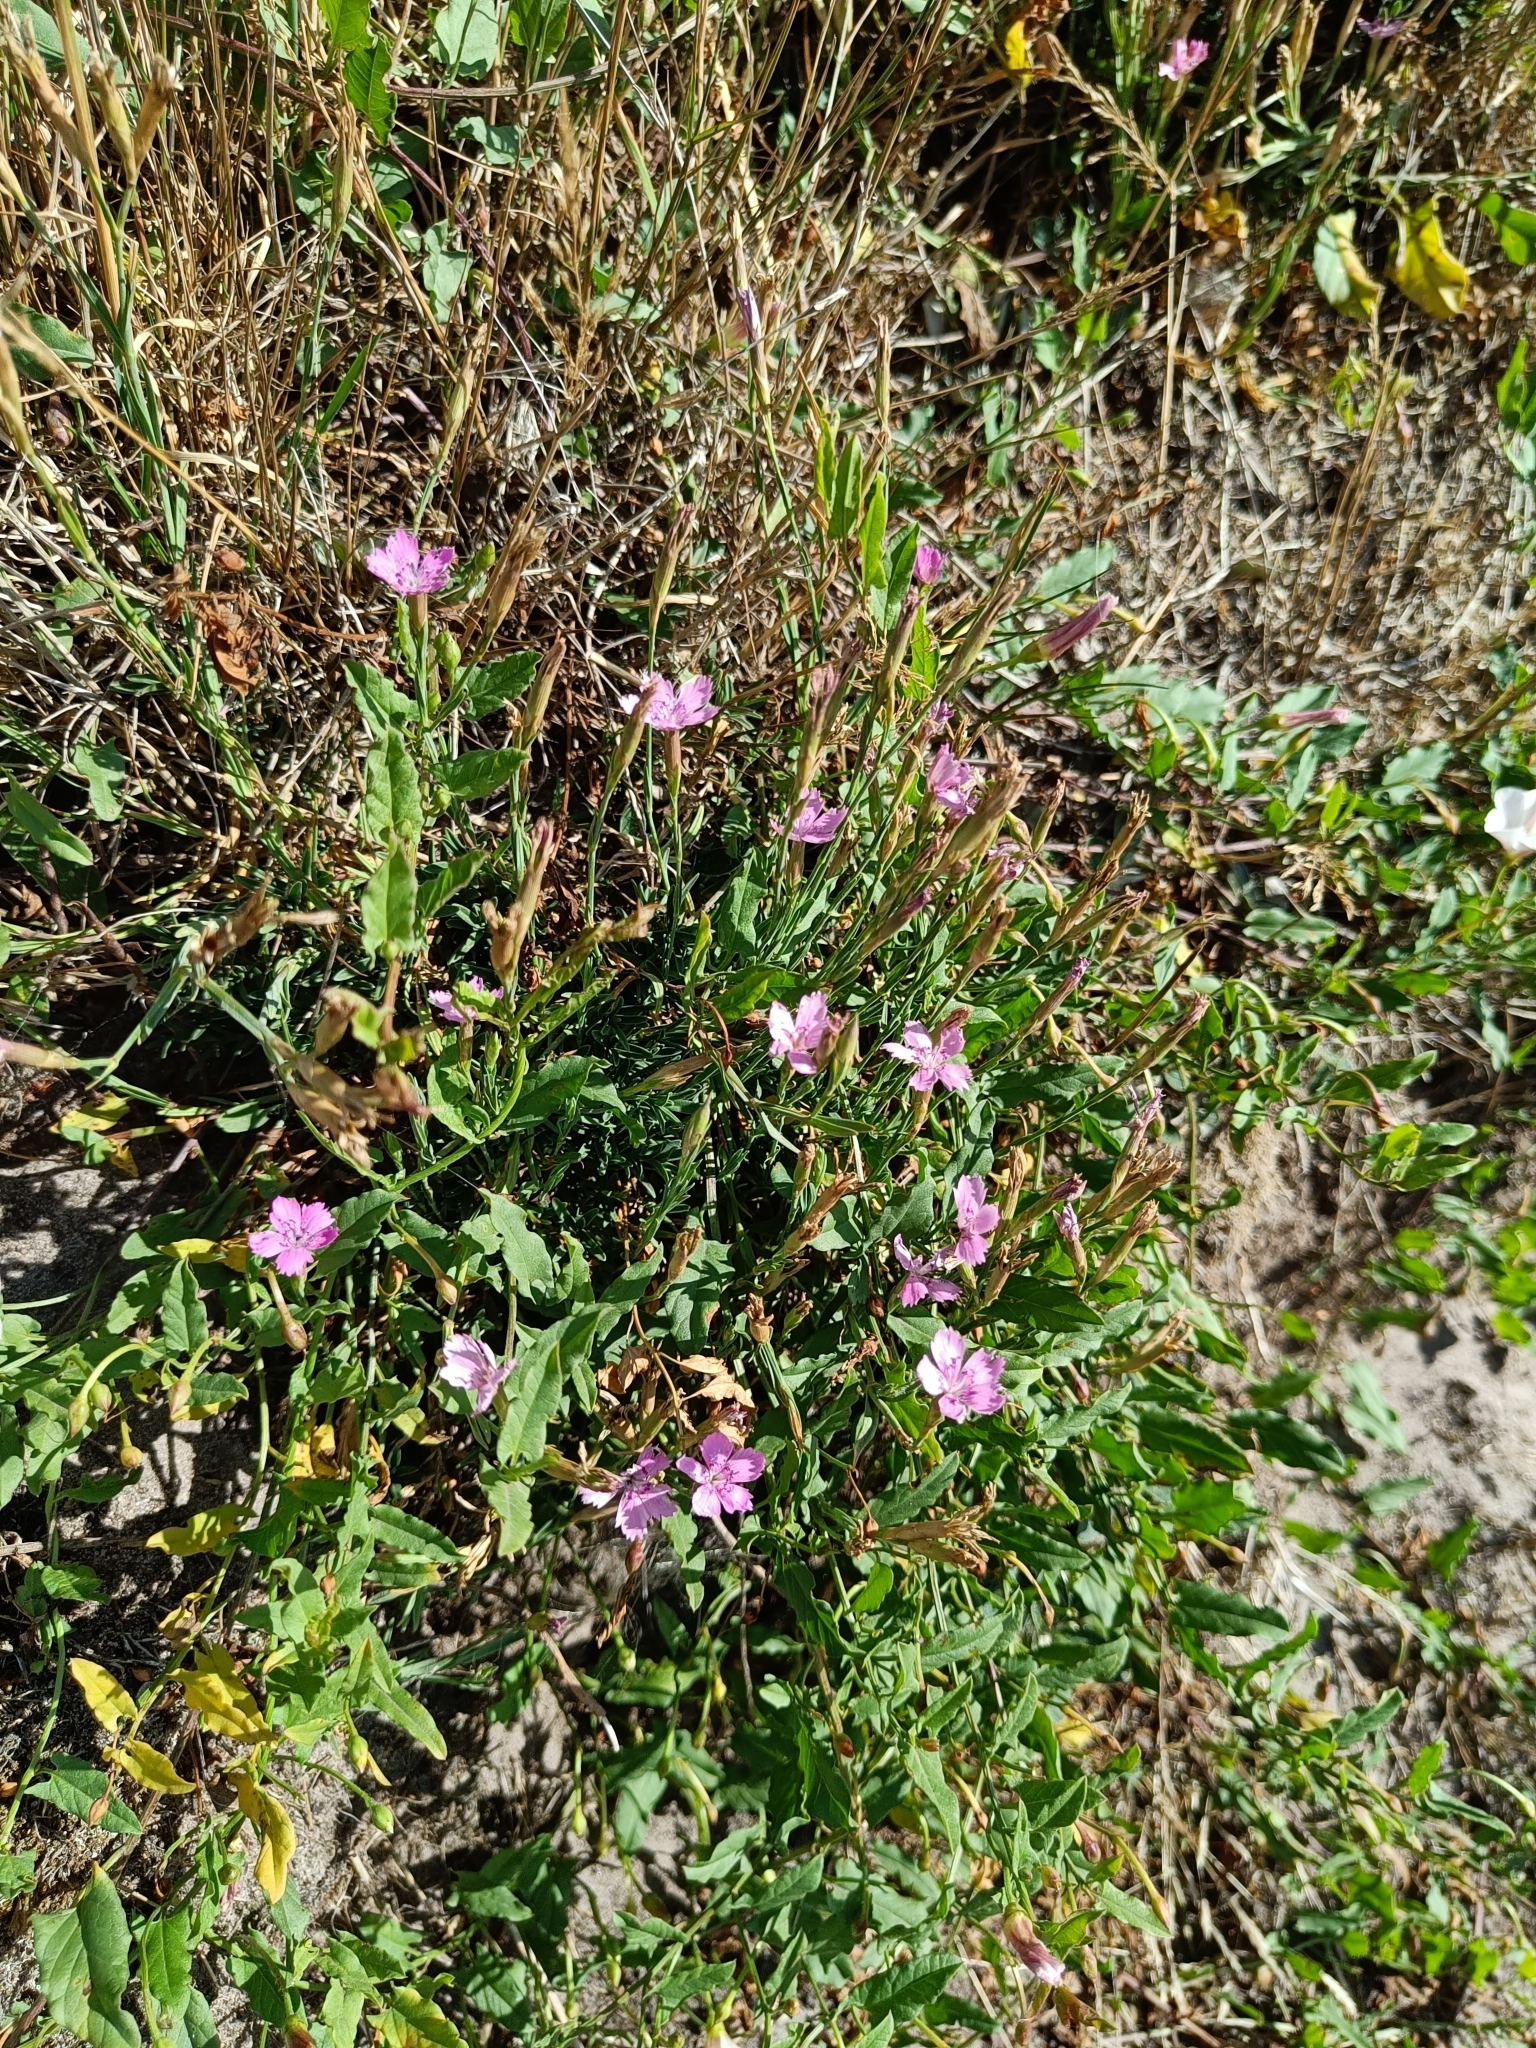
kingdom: Plantae
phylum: Tracheophyta
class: Magnoliopsida
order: Caryophyllales
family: Caryophyllaceae
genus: Dianthus
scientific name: Dianthus deltoides
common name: Maiden pink
